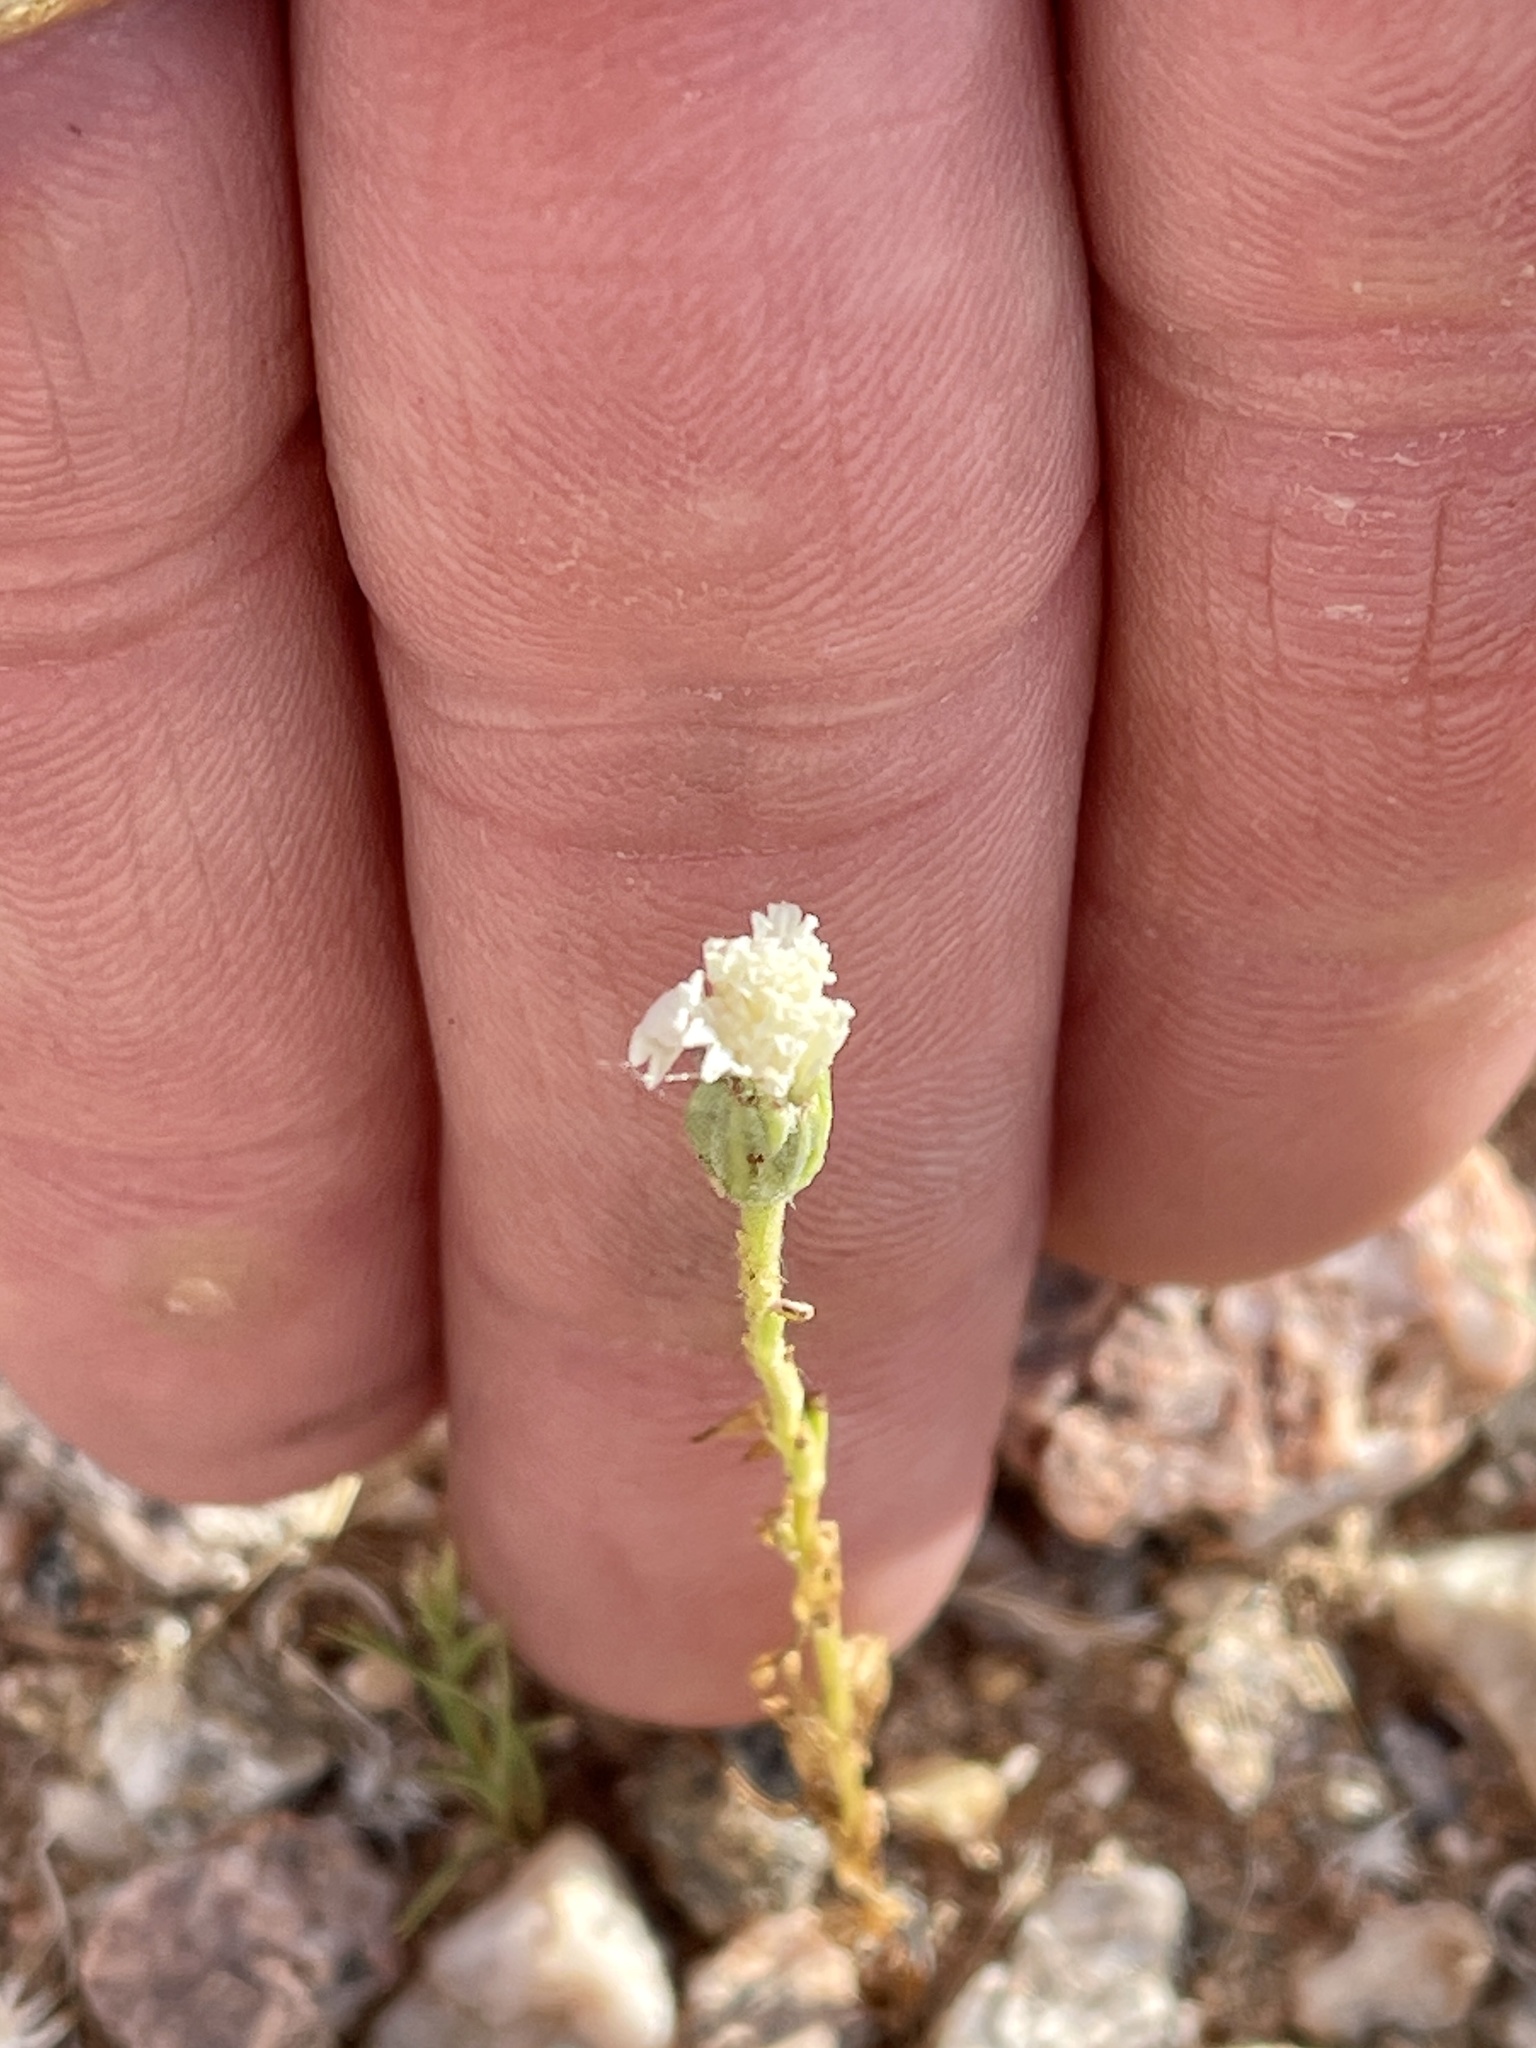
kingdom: Plantae
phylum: Tracheophyta
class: Magnoliopsida
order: Boraginales
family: Boraginaceae
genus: Cryptantha
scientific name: Cryptantha pterocarya
